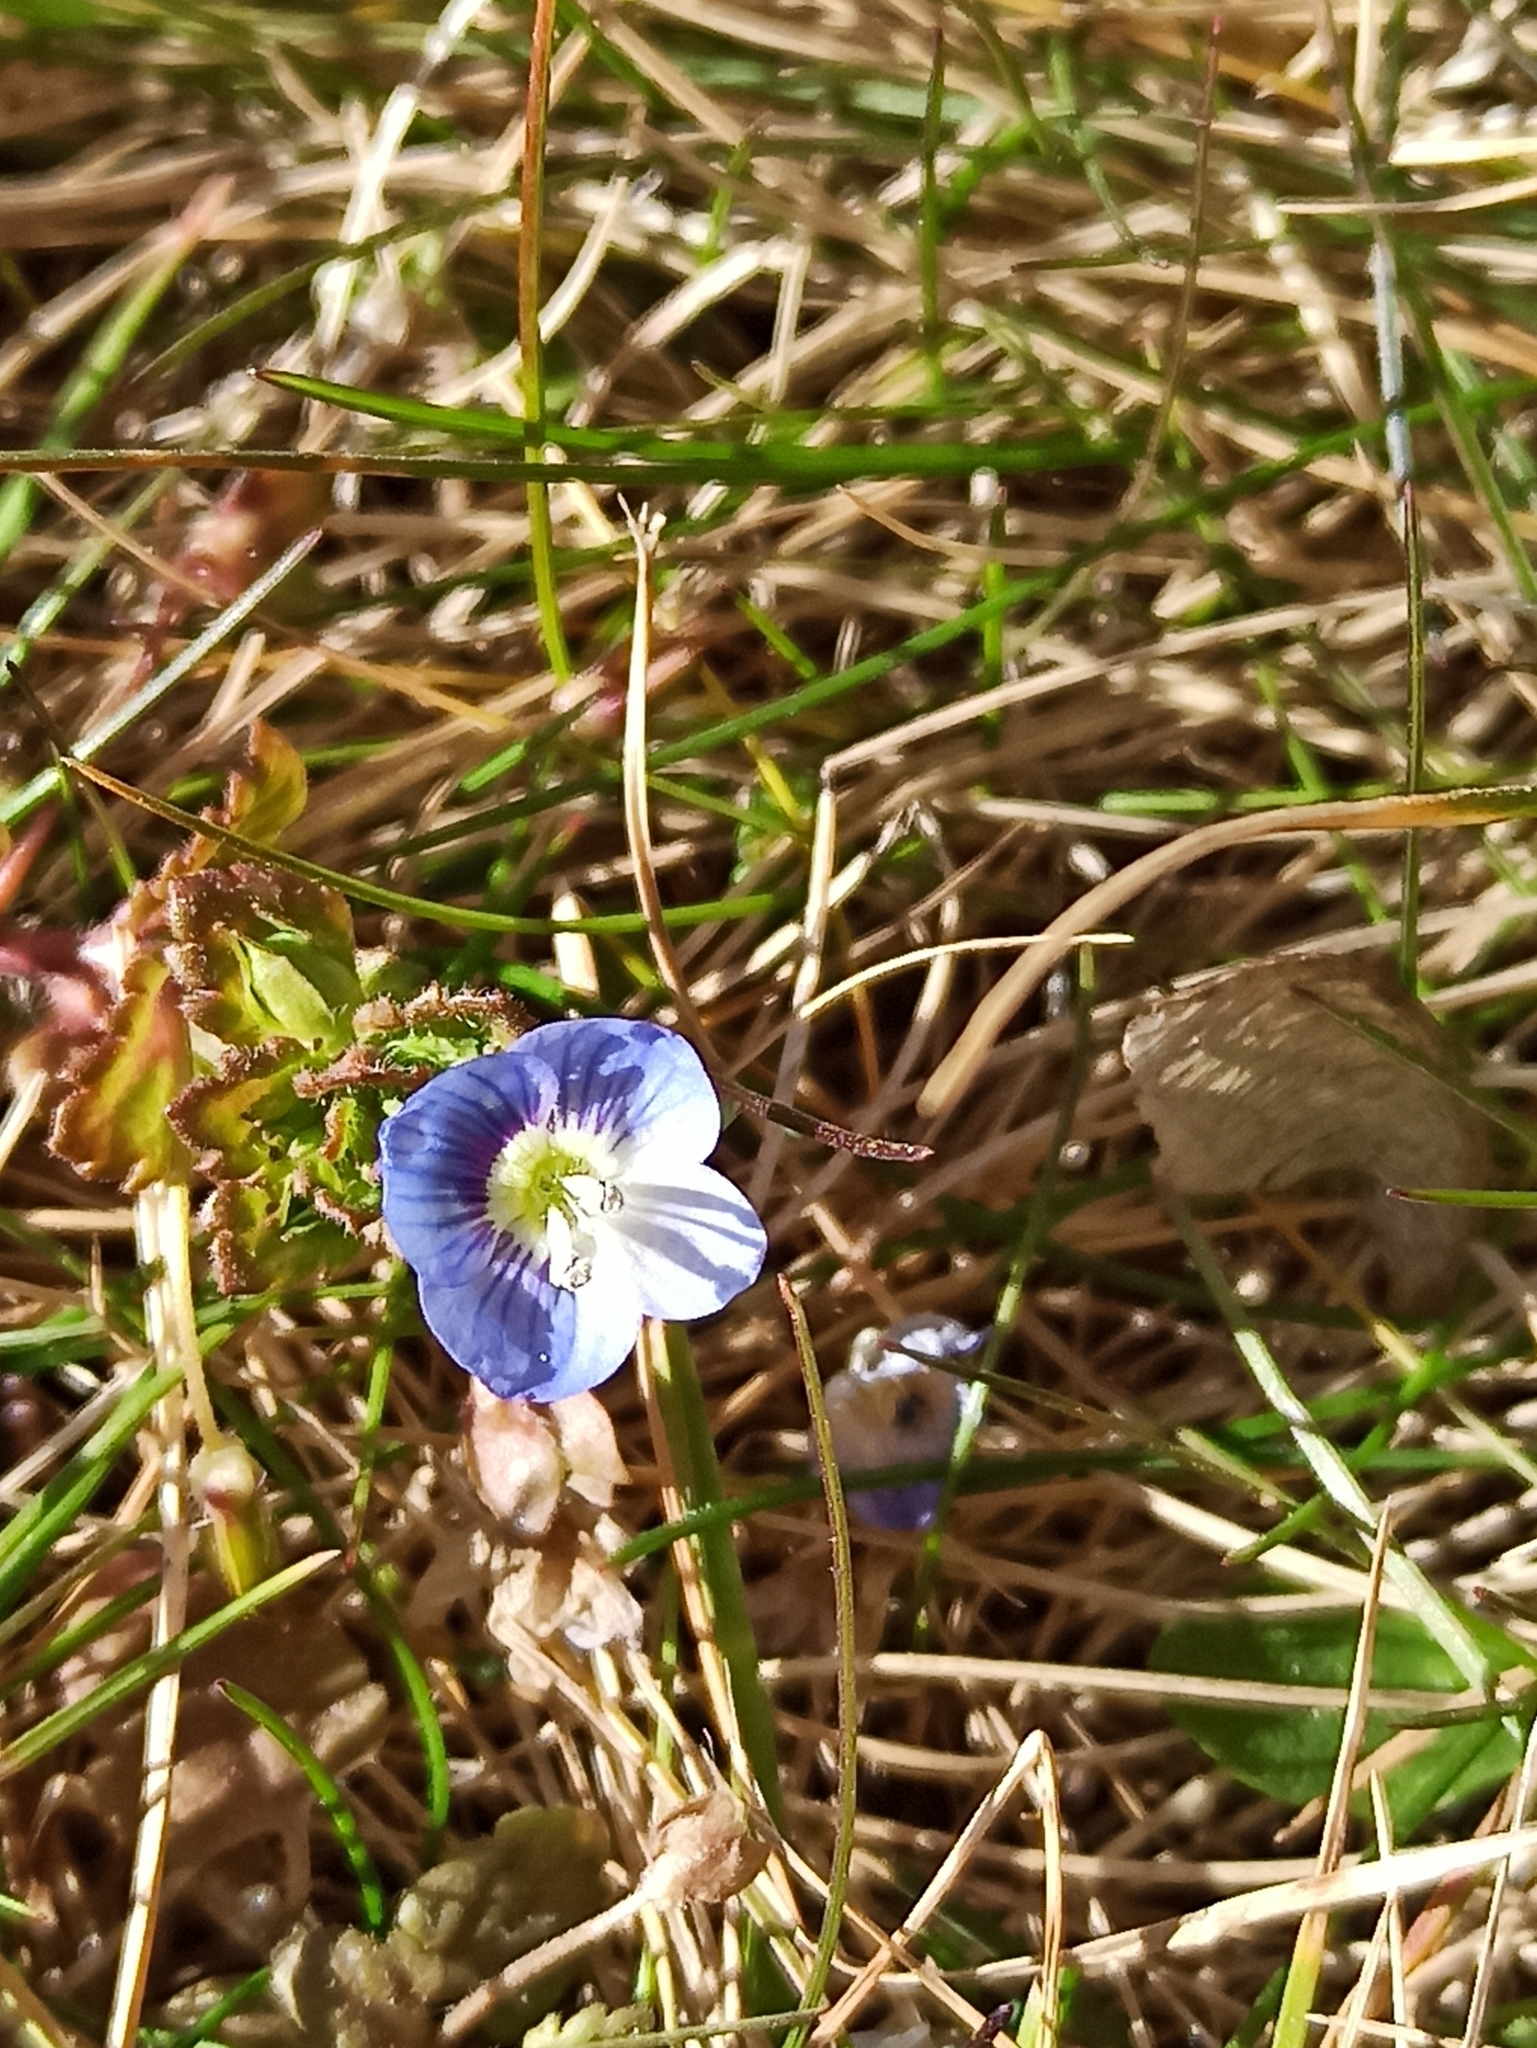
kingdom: Plantae
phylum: Tracheophyta
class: Magnoliopsida
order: Lamiales
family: Plantaginaceae
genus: Veronica
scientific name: Veronica persica
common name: Common field-speedwell
